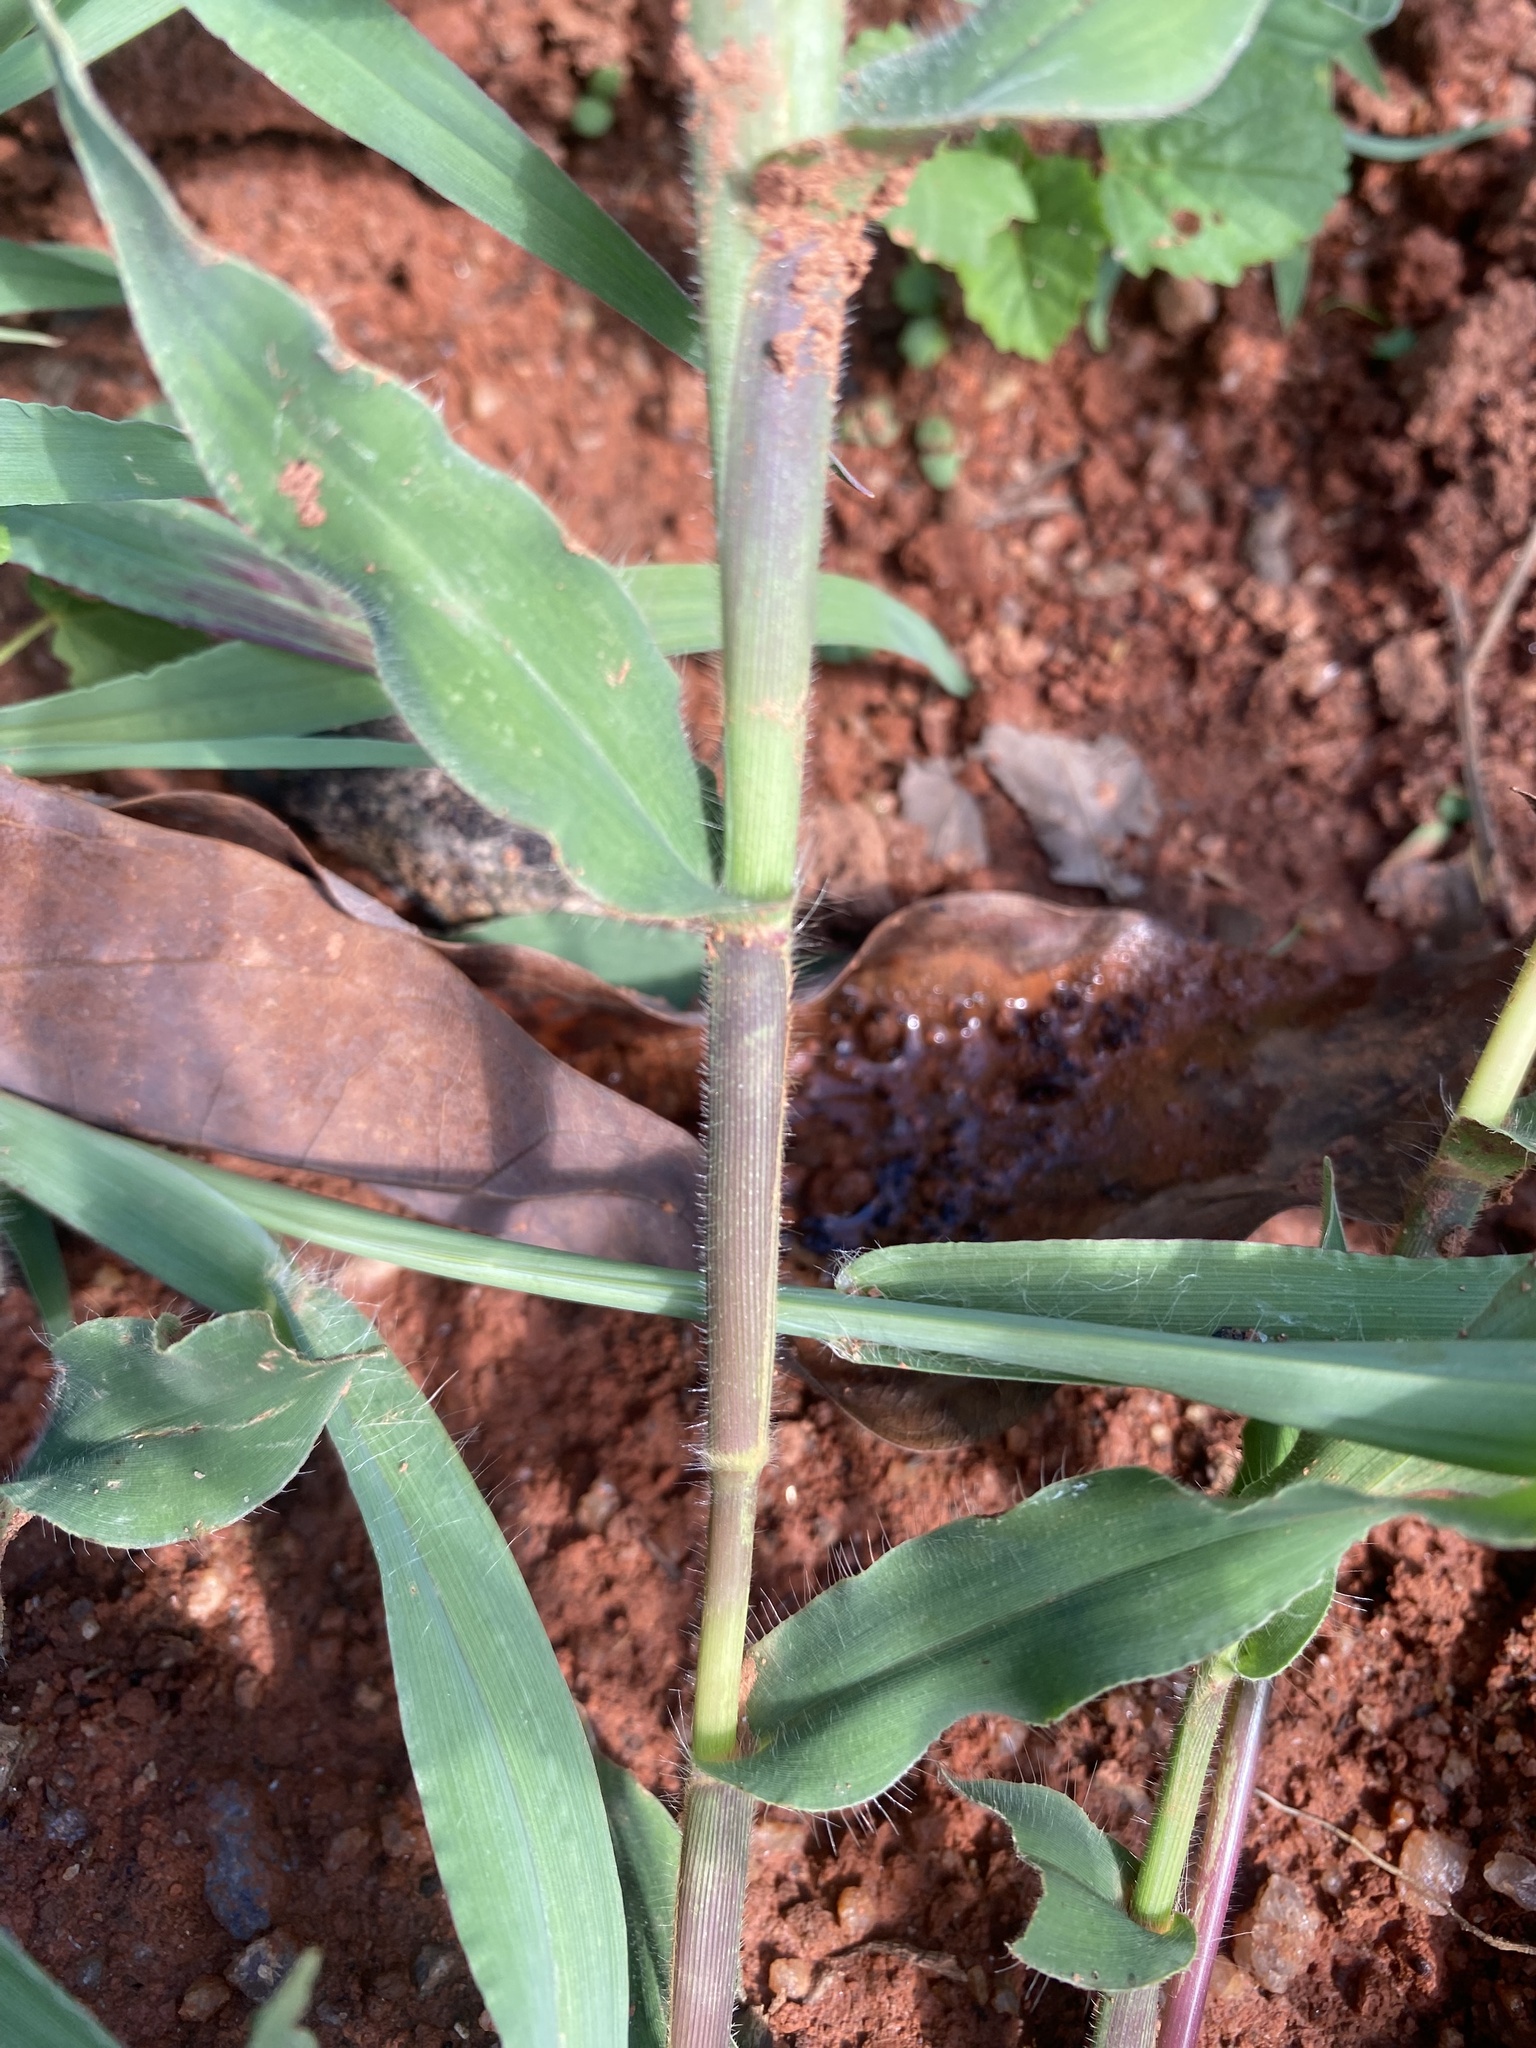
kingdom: Plantae
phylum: Tracheophyta
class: Liliopsida
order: Poales
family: Poaceae
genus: Urochloa
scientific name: Urochloa panicoides
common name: Sharp-flowered signal-grass
